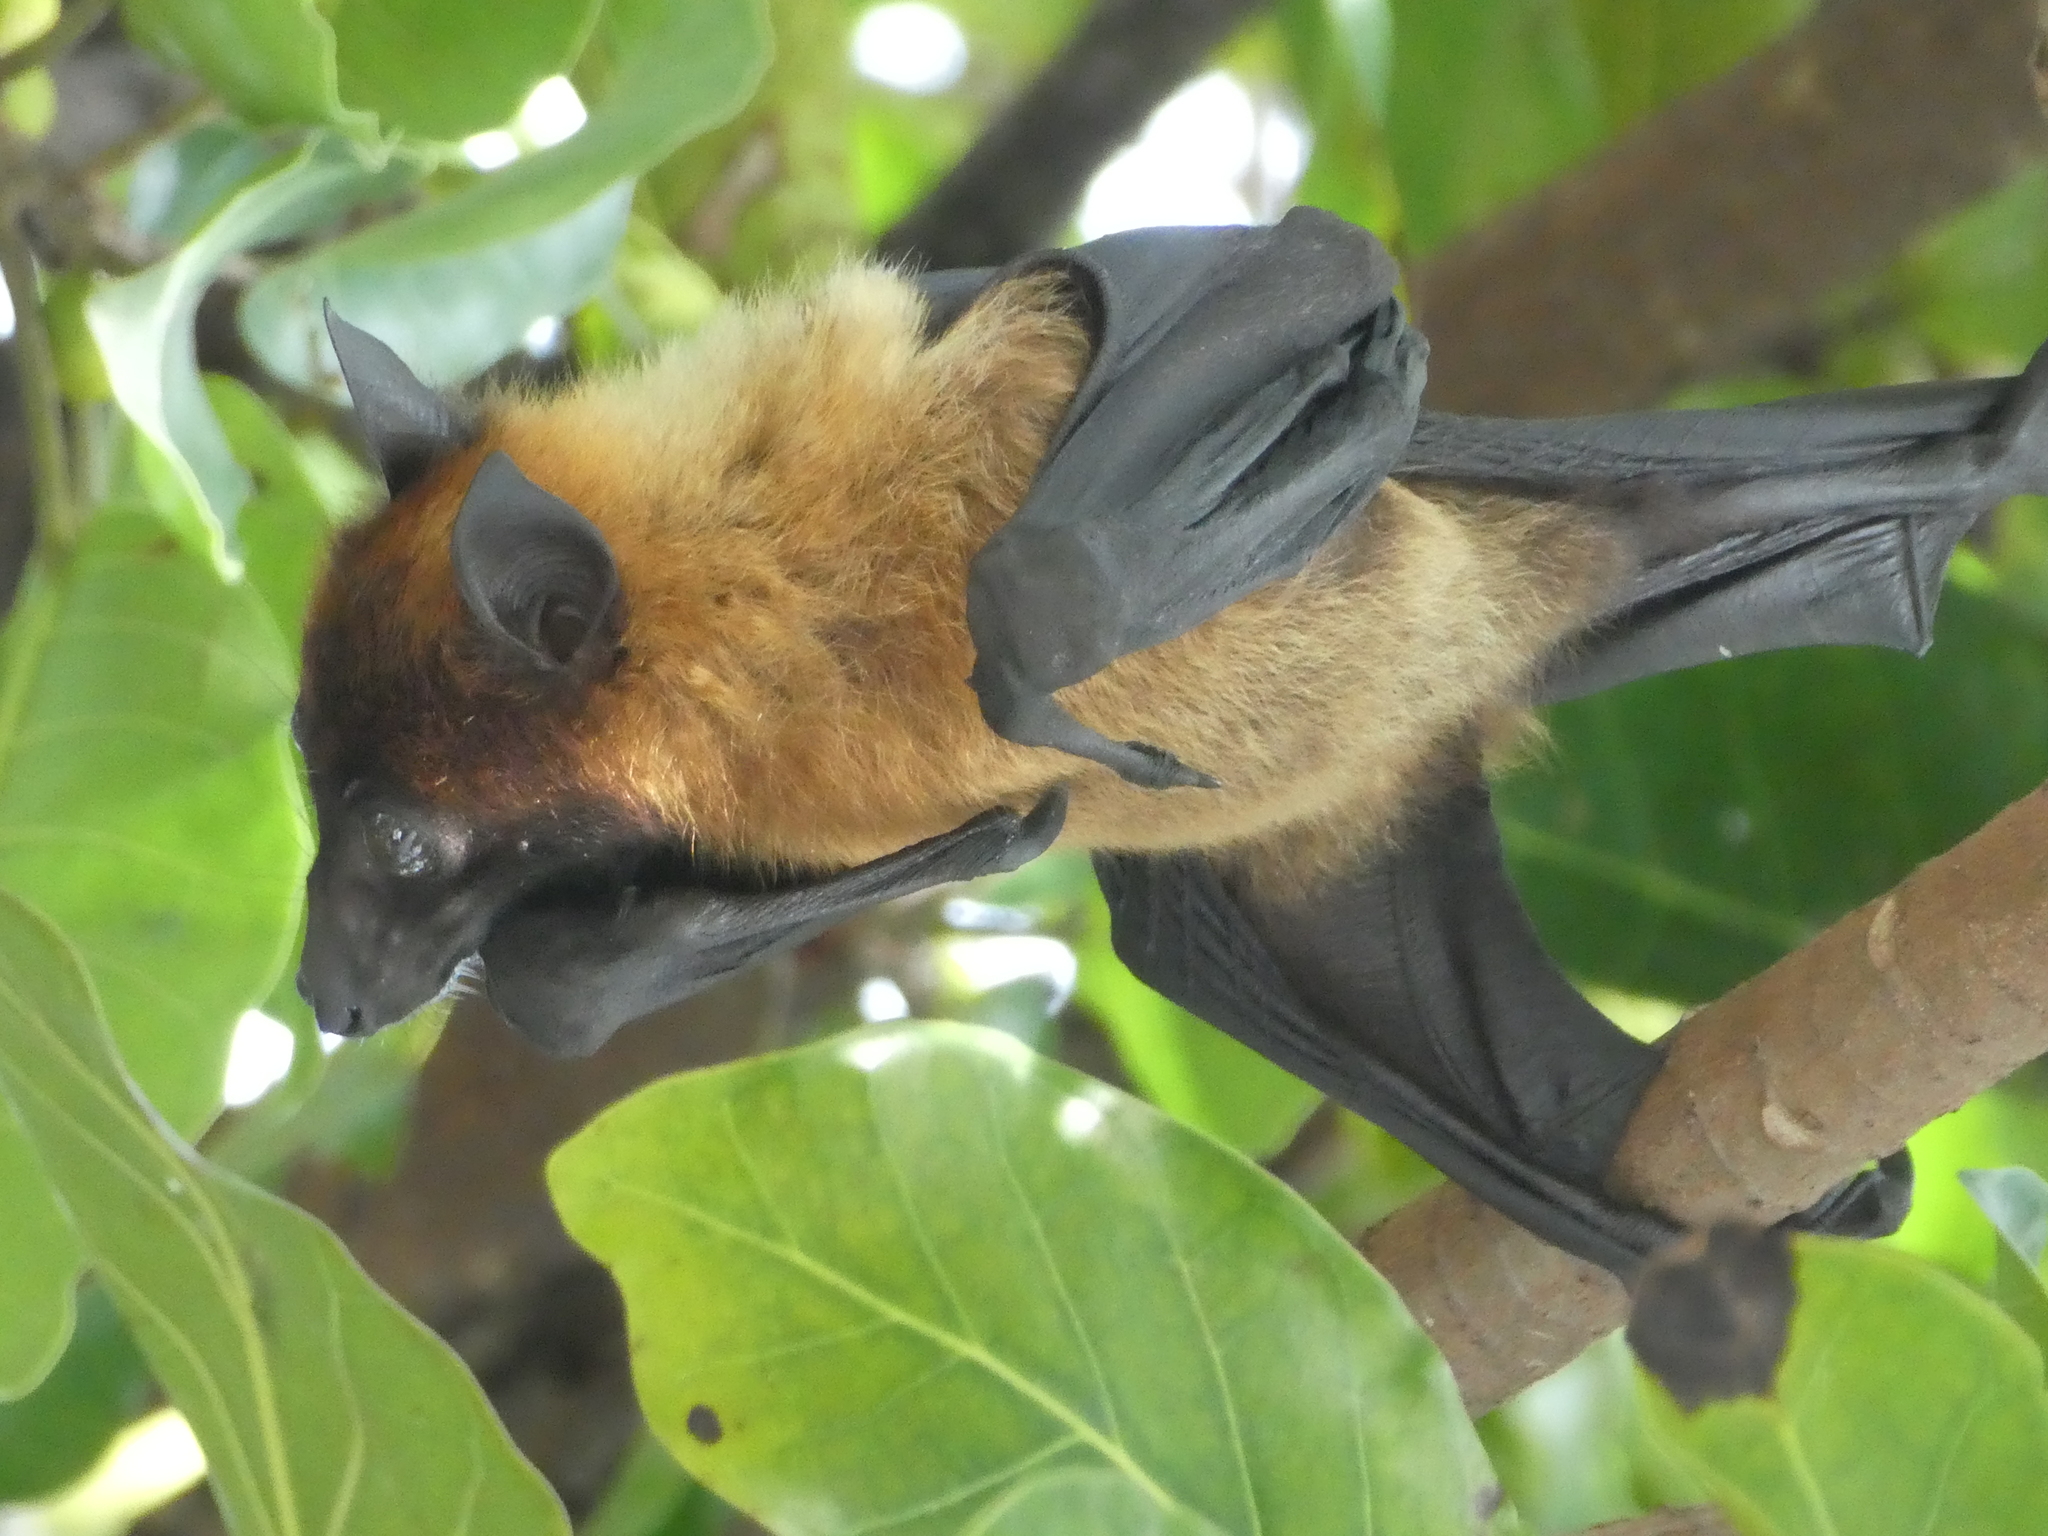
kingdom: Animalia
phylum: Chordata
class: Mammalia
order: Chiroptera
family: Pteropodidae
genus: Pteropus
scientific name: Pteropus medius
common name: Indian flying fox
